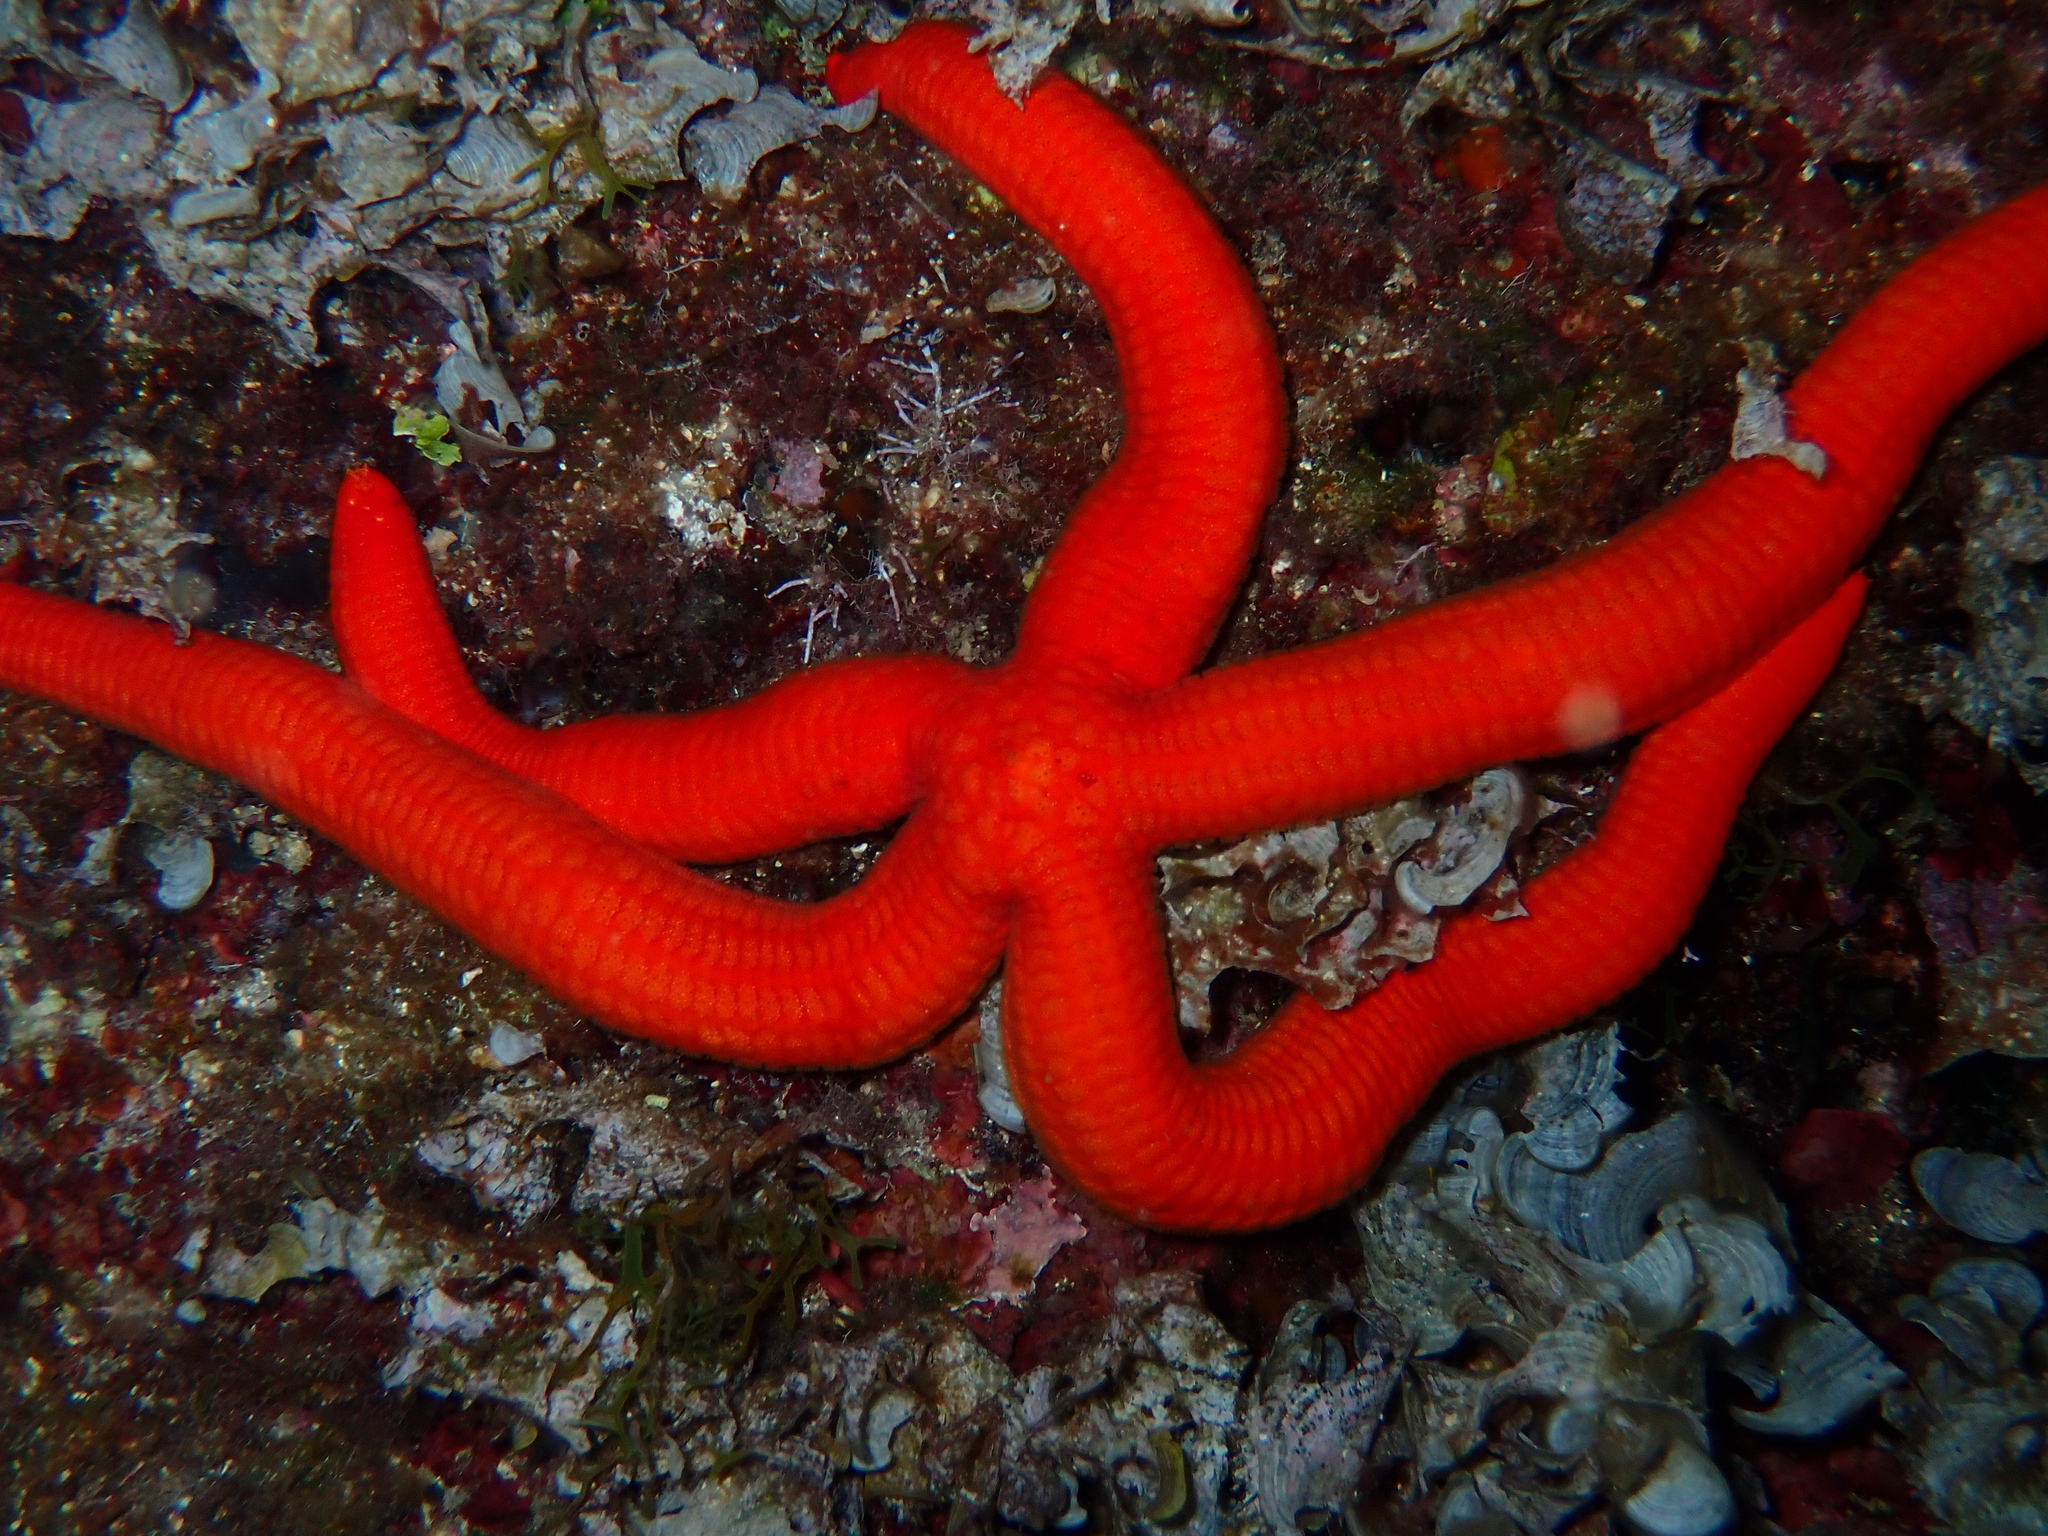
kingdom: Animalia
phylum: Echinodermata
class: Asteroidea
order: Valvatida
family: Ophidiasteridae
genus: Ophidiaster
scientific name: Ophidiaster ophidianus
